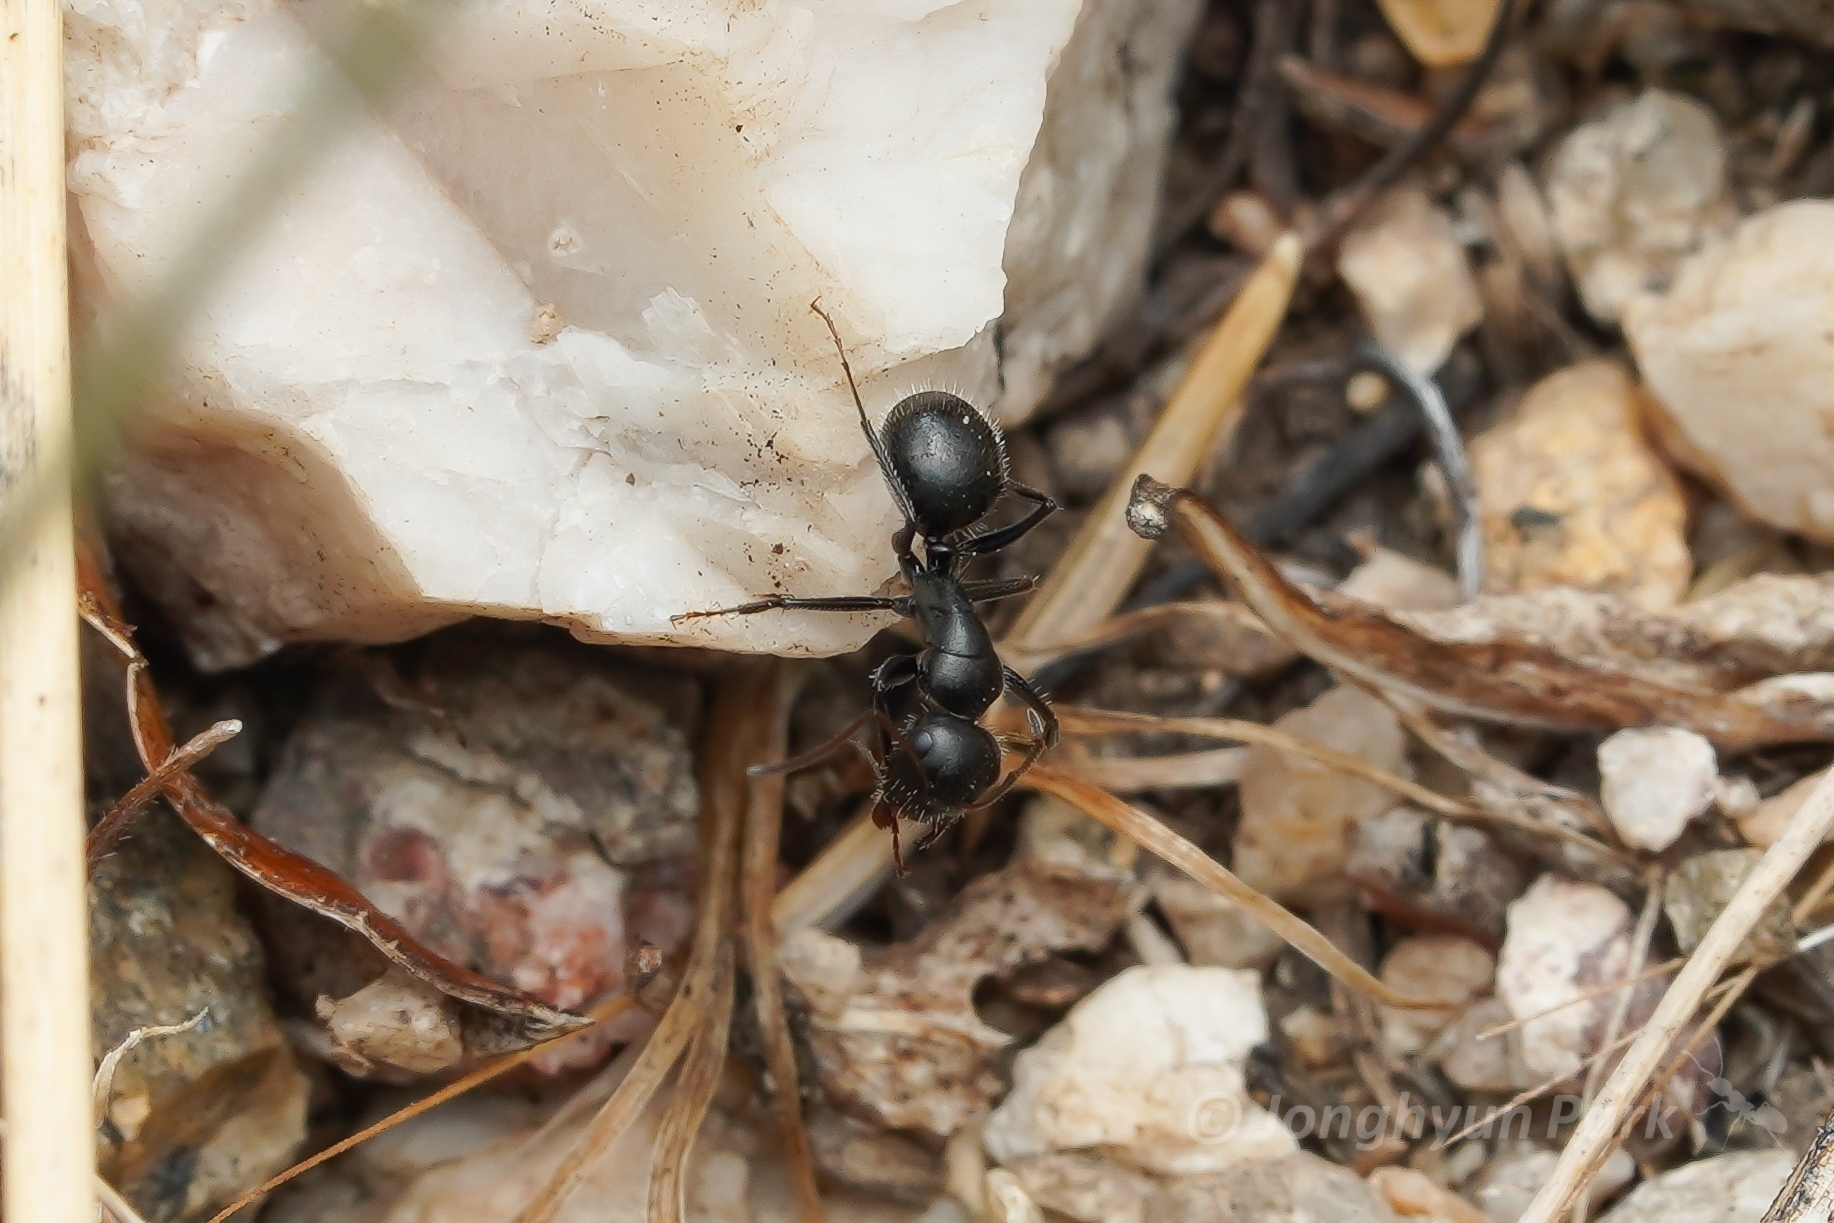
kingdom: Animalia
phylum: Arthropoda
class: Insecta
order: Hymenoptera
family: Formicidae
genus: Camponotus
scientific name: Camponotus mina
